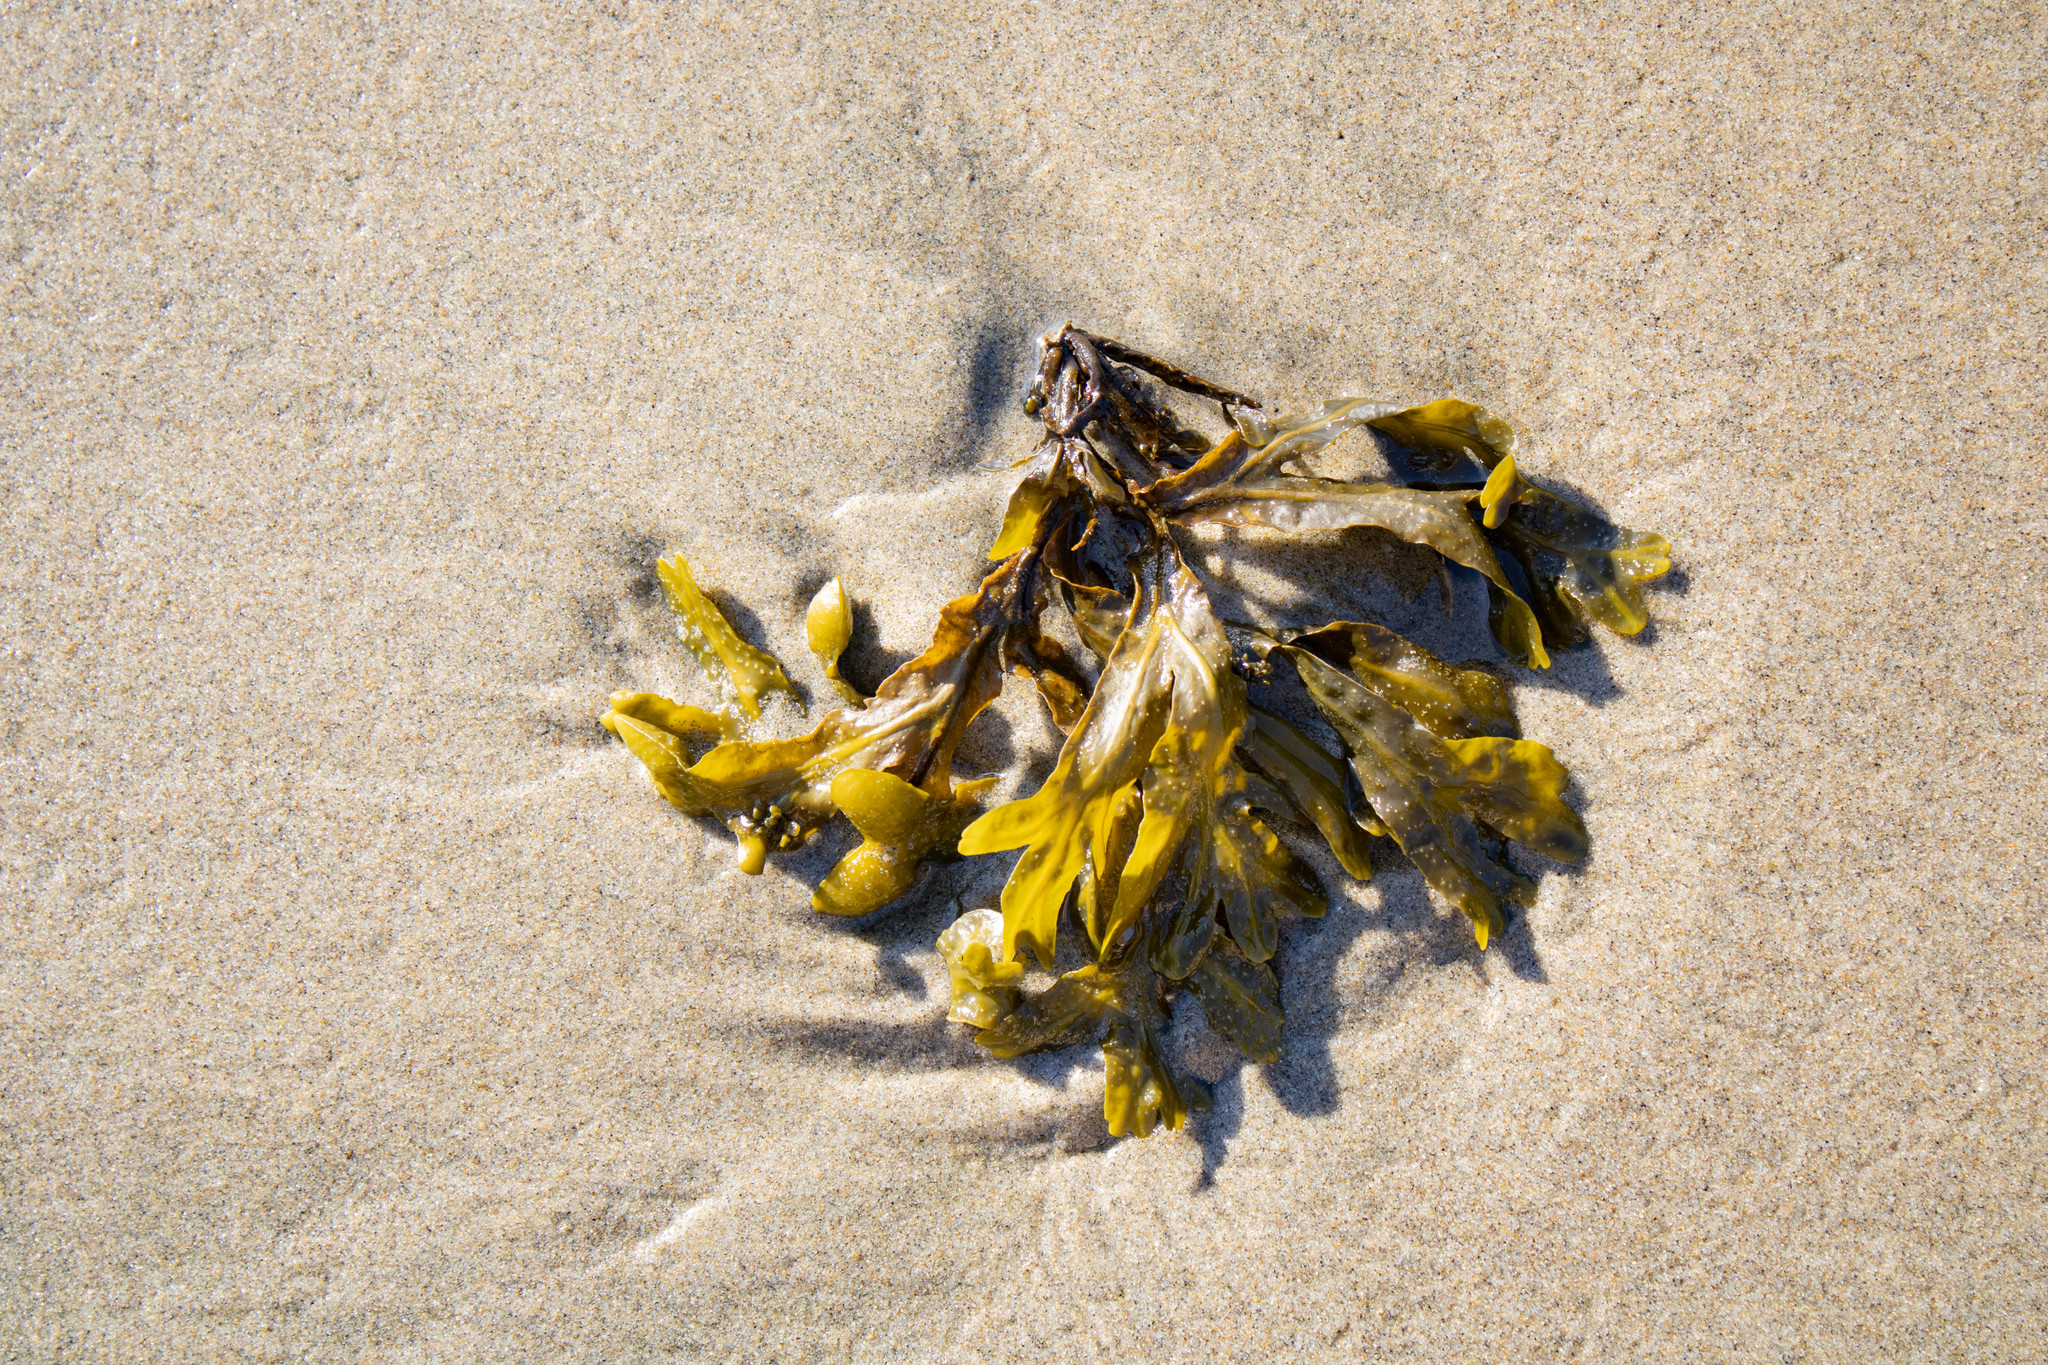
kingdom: Chromista
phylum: Ochrophyta
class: Phaeophyceae
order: Fucales
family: Fucaceae
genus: Fucus
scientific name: Fucus distichus
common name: Rockweed
